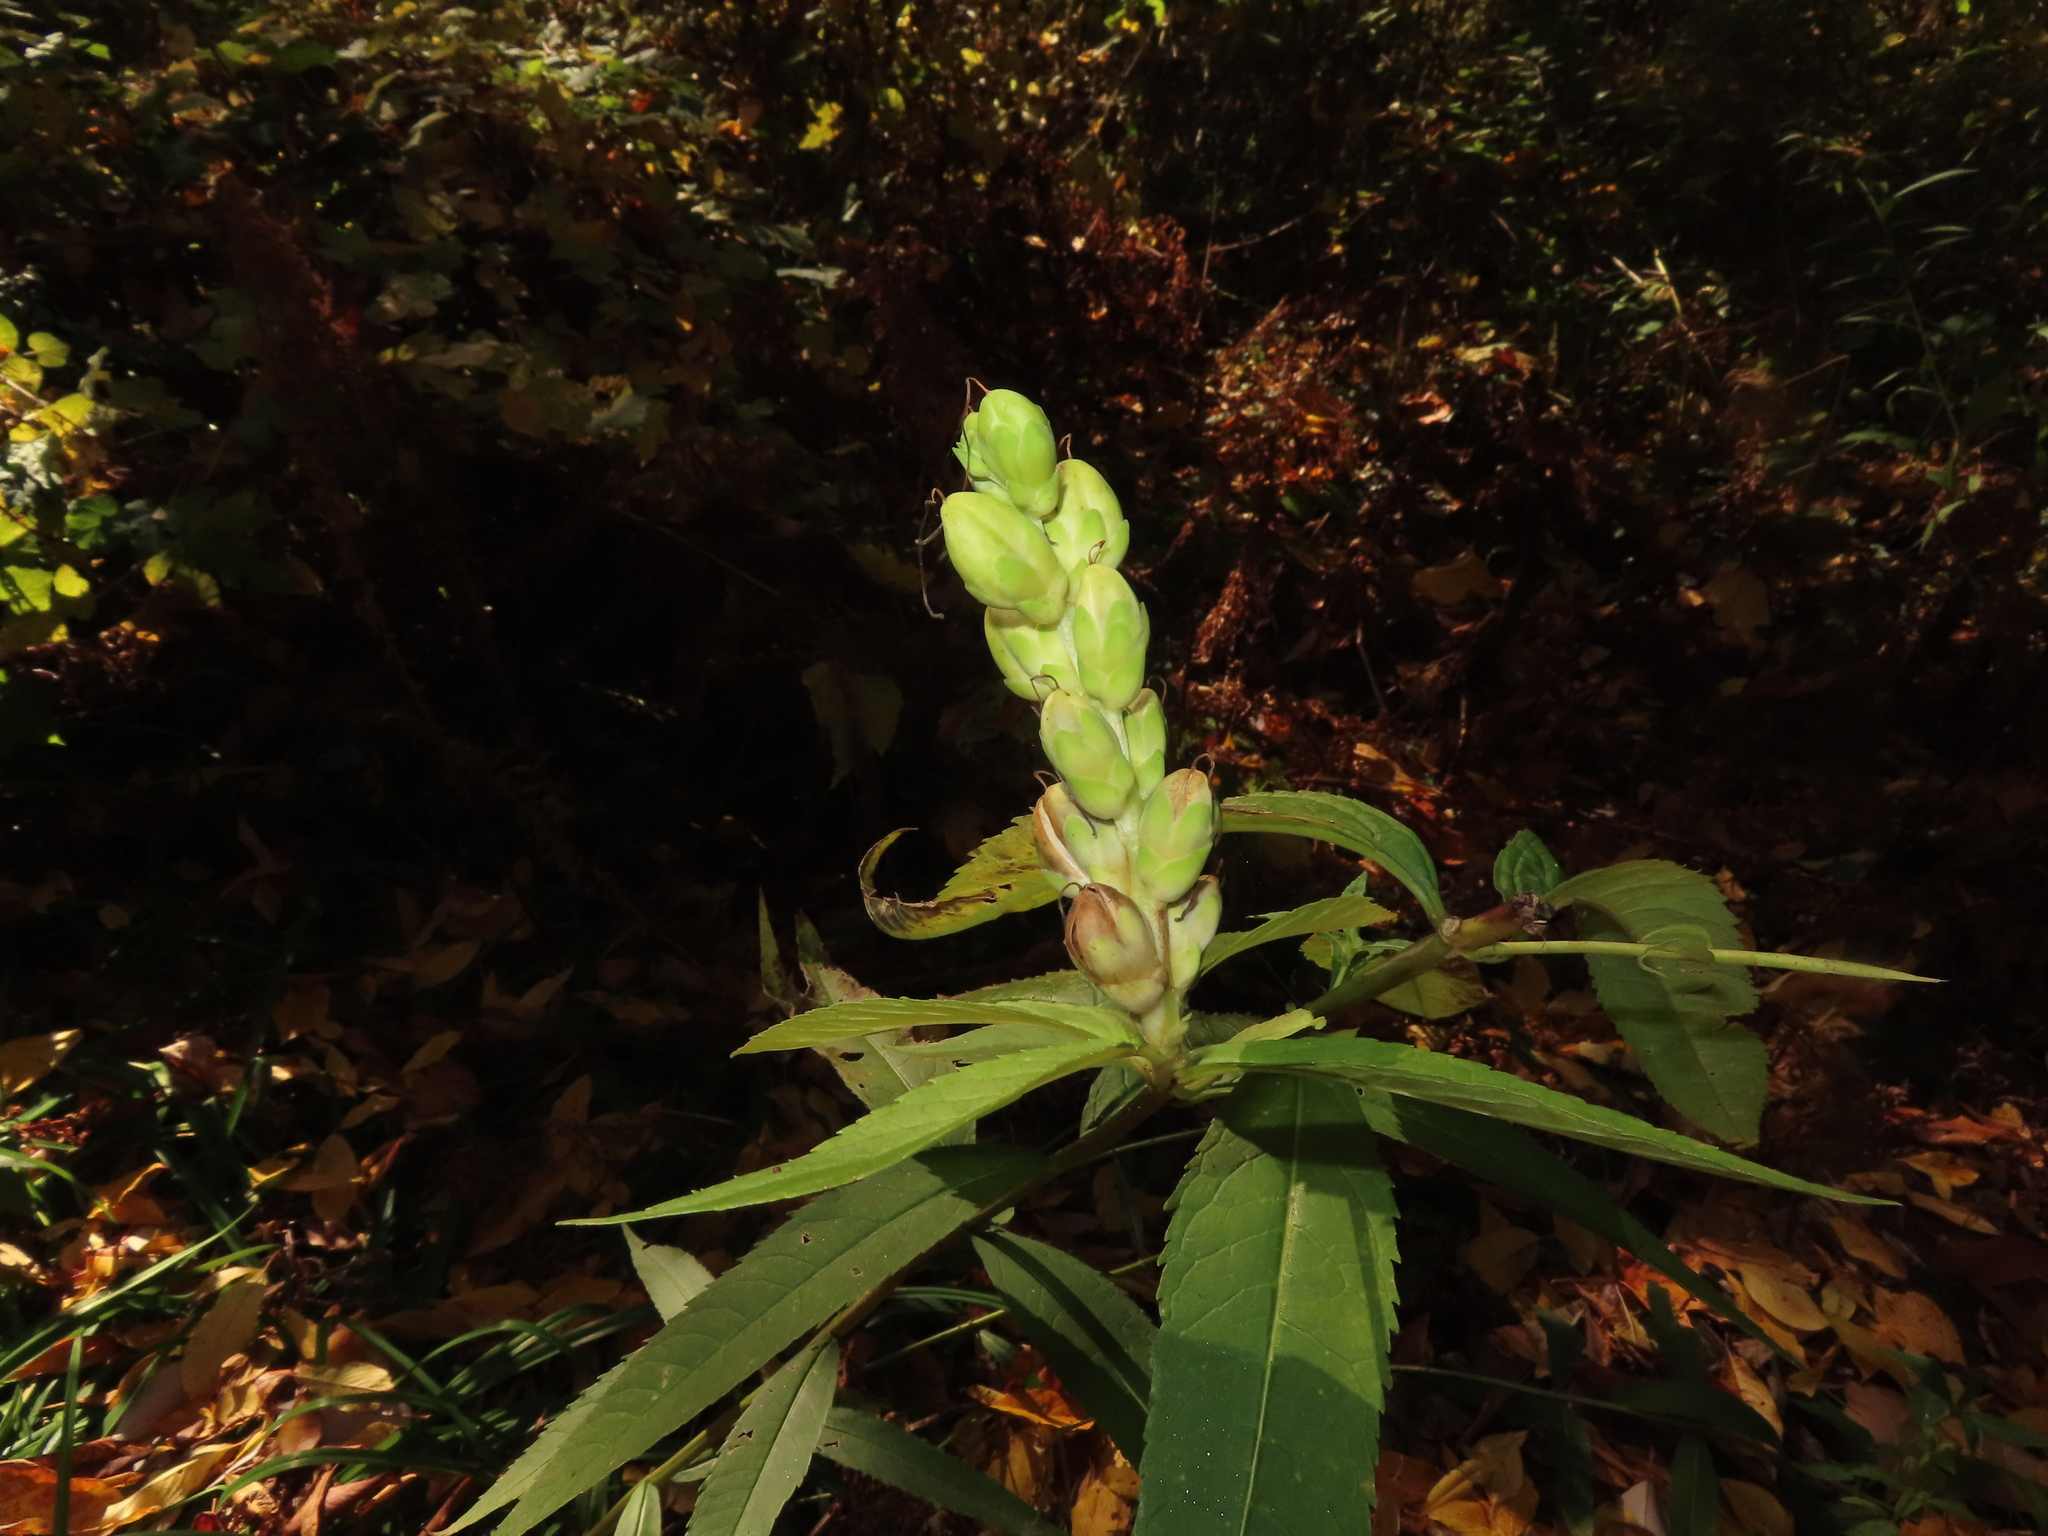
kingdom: Plantae
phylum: Tracheophyta
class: Magnoliopsida
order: Lamiales
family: Plantaginaceae
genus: Chelone
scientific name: Chelone glabra
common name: Snakehead
